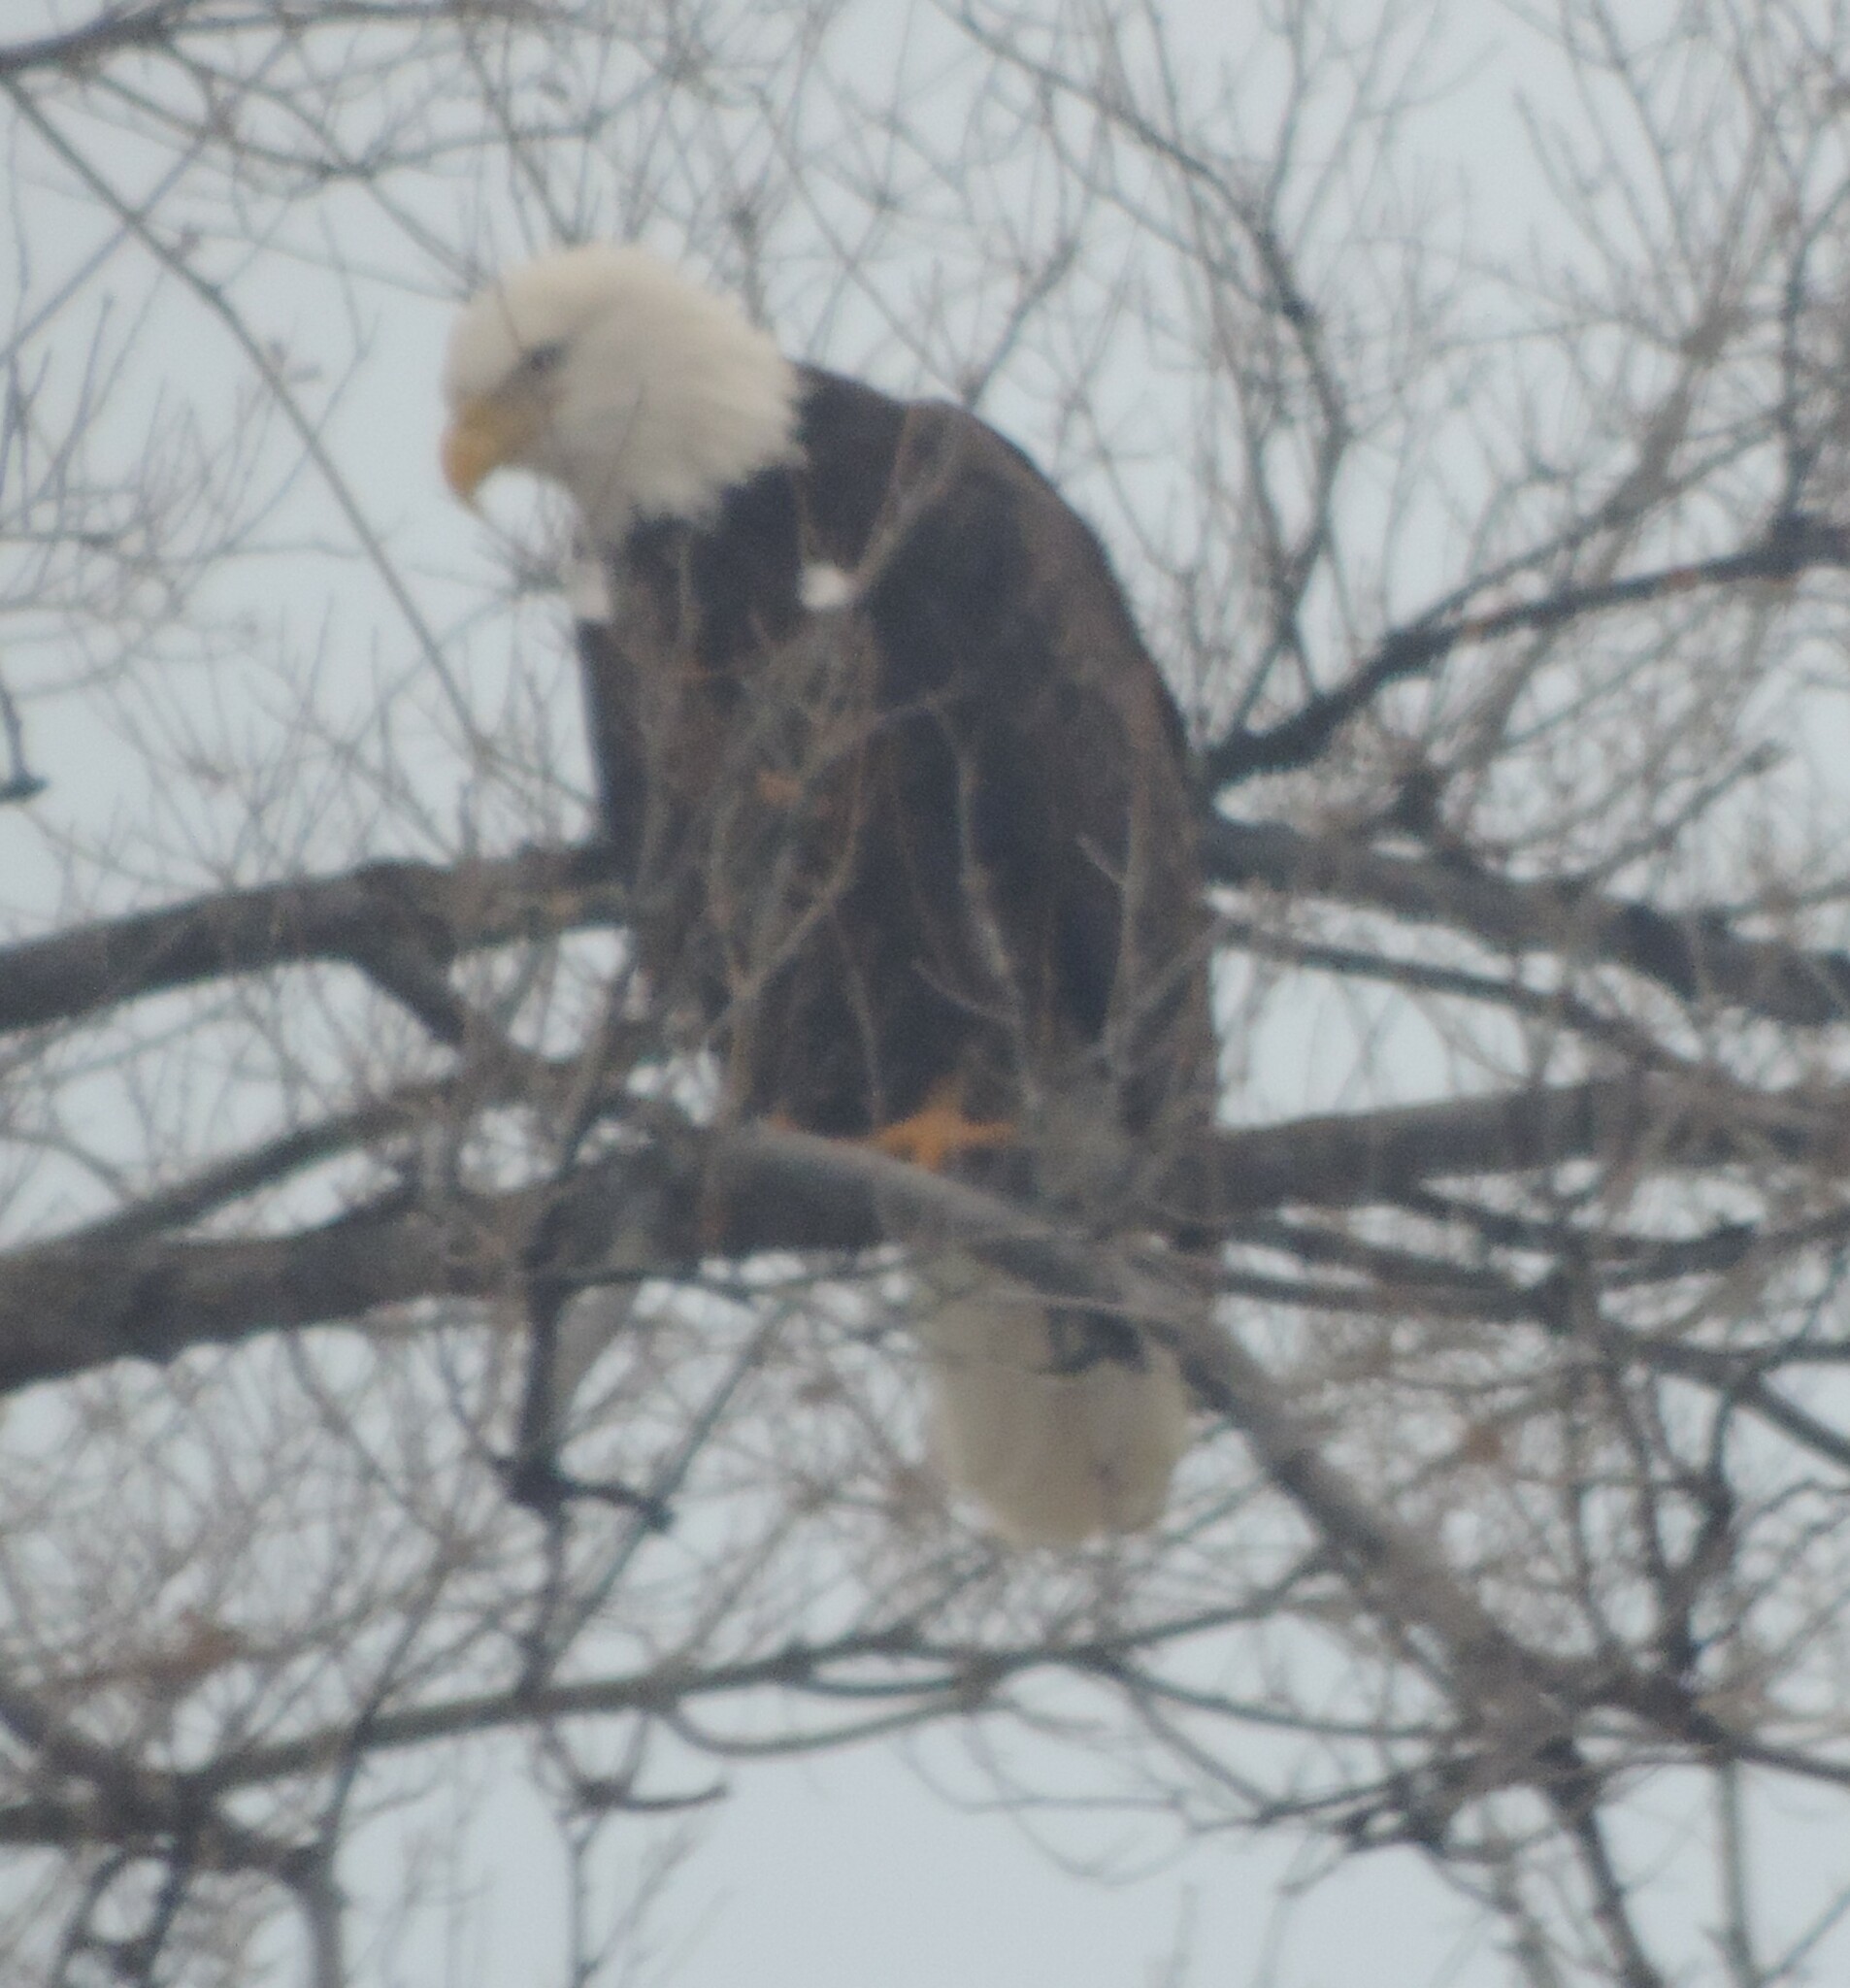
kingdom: Animalia
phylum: Chordata
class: Aves
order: Accipitriformes
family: Accipitridae
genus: Haliaeetus
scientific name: Haliaeetus leucocephalus
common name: Bald eagle
